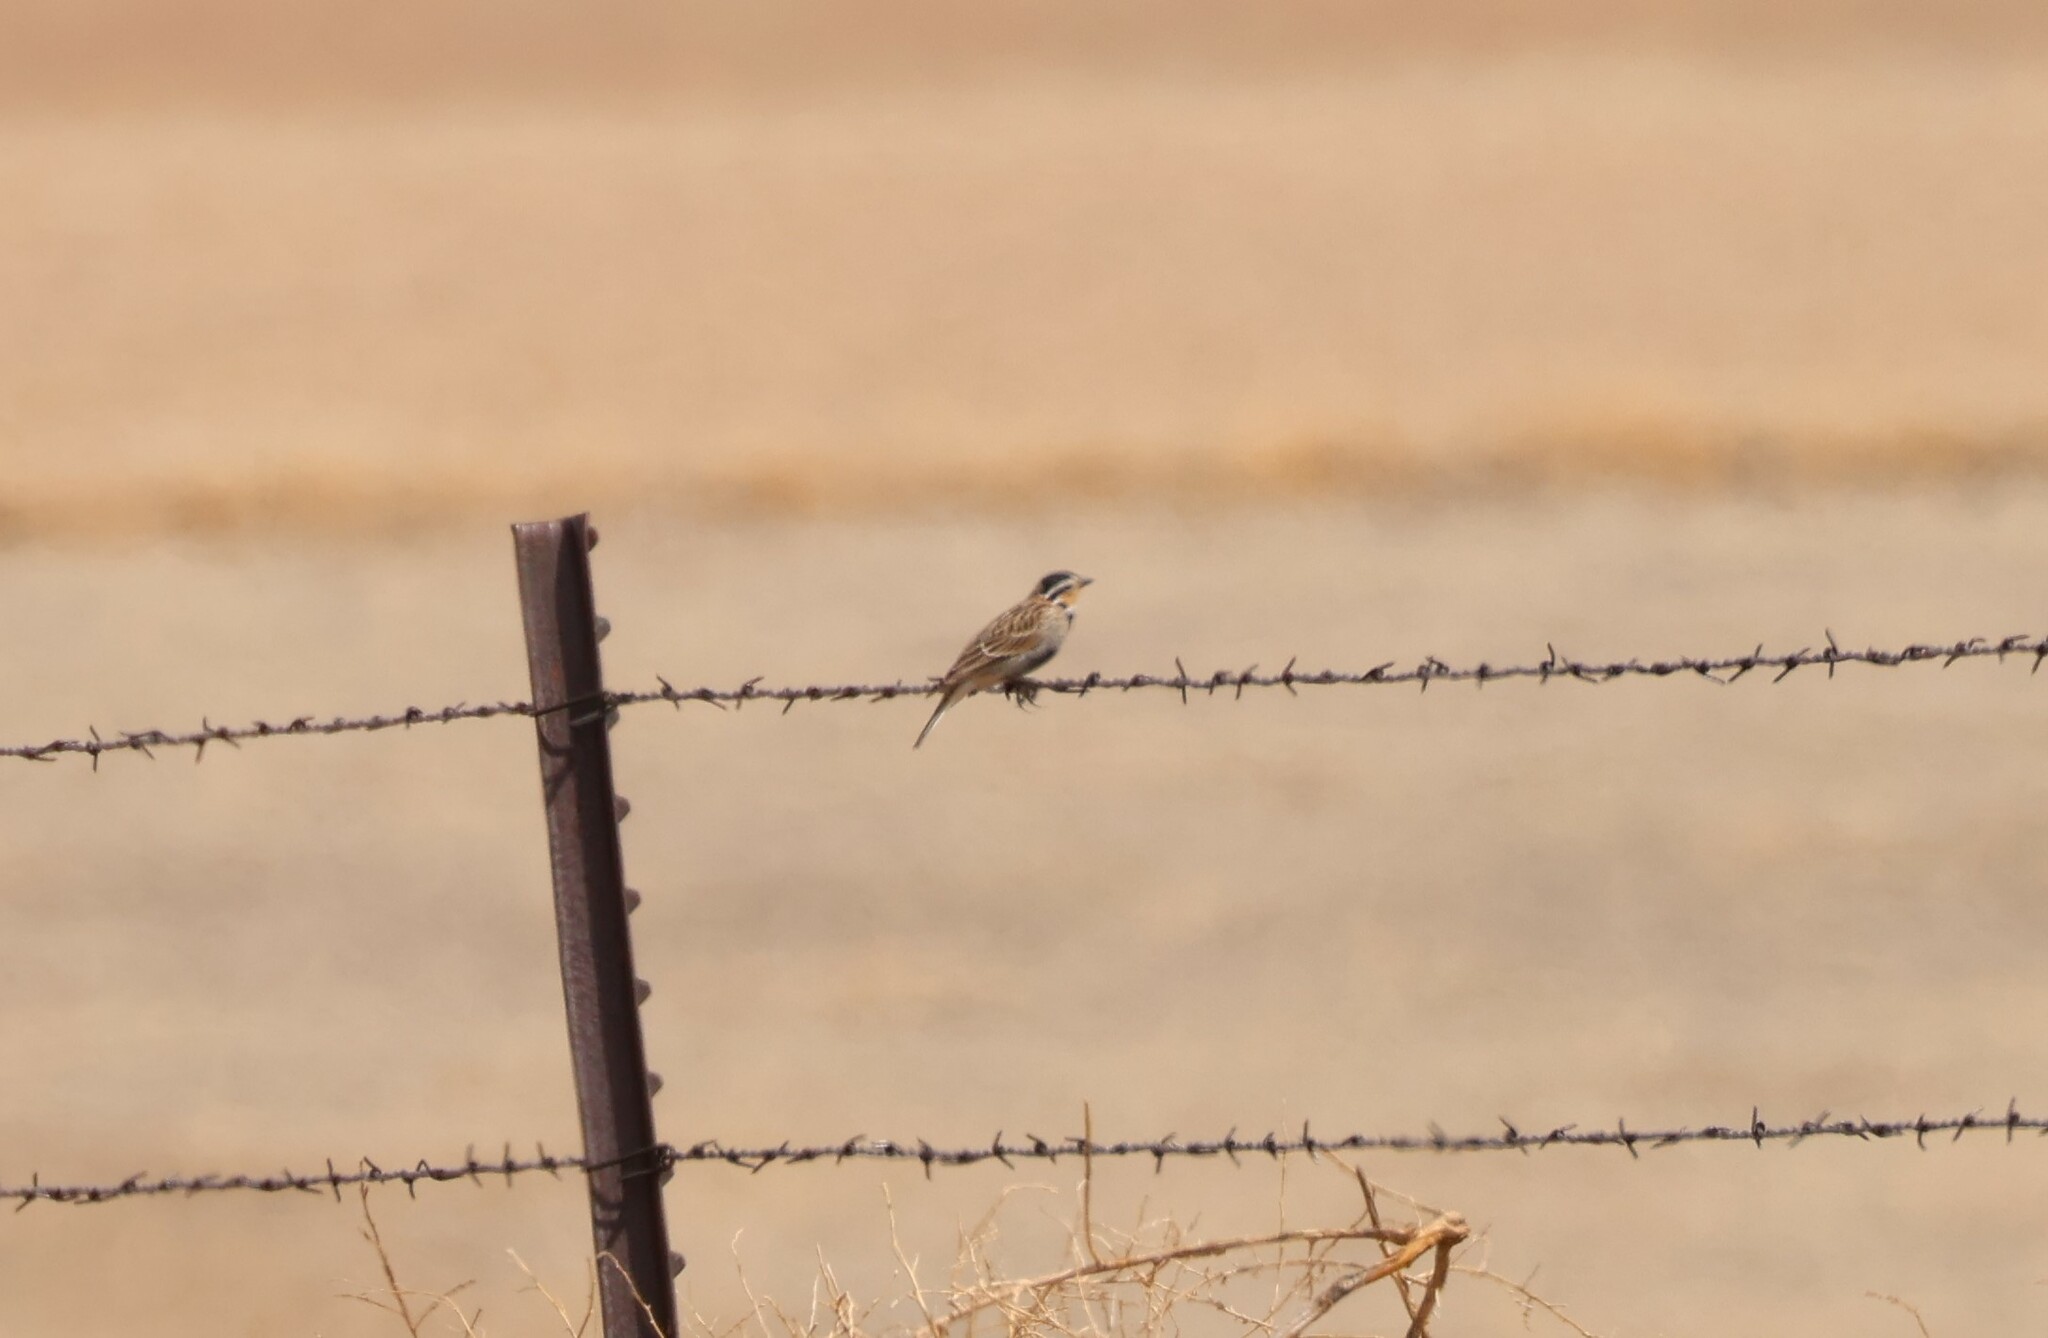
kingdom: Animalia
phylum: Chordata
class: Aves
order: Passeriformes
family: Calcariidae
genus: Calcarius
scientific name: Calcarius ornatus
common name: Chestnut-collared longspur
